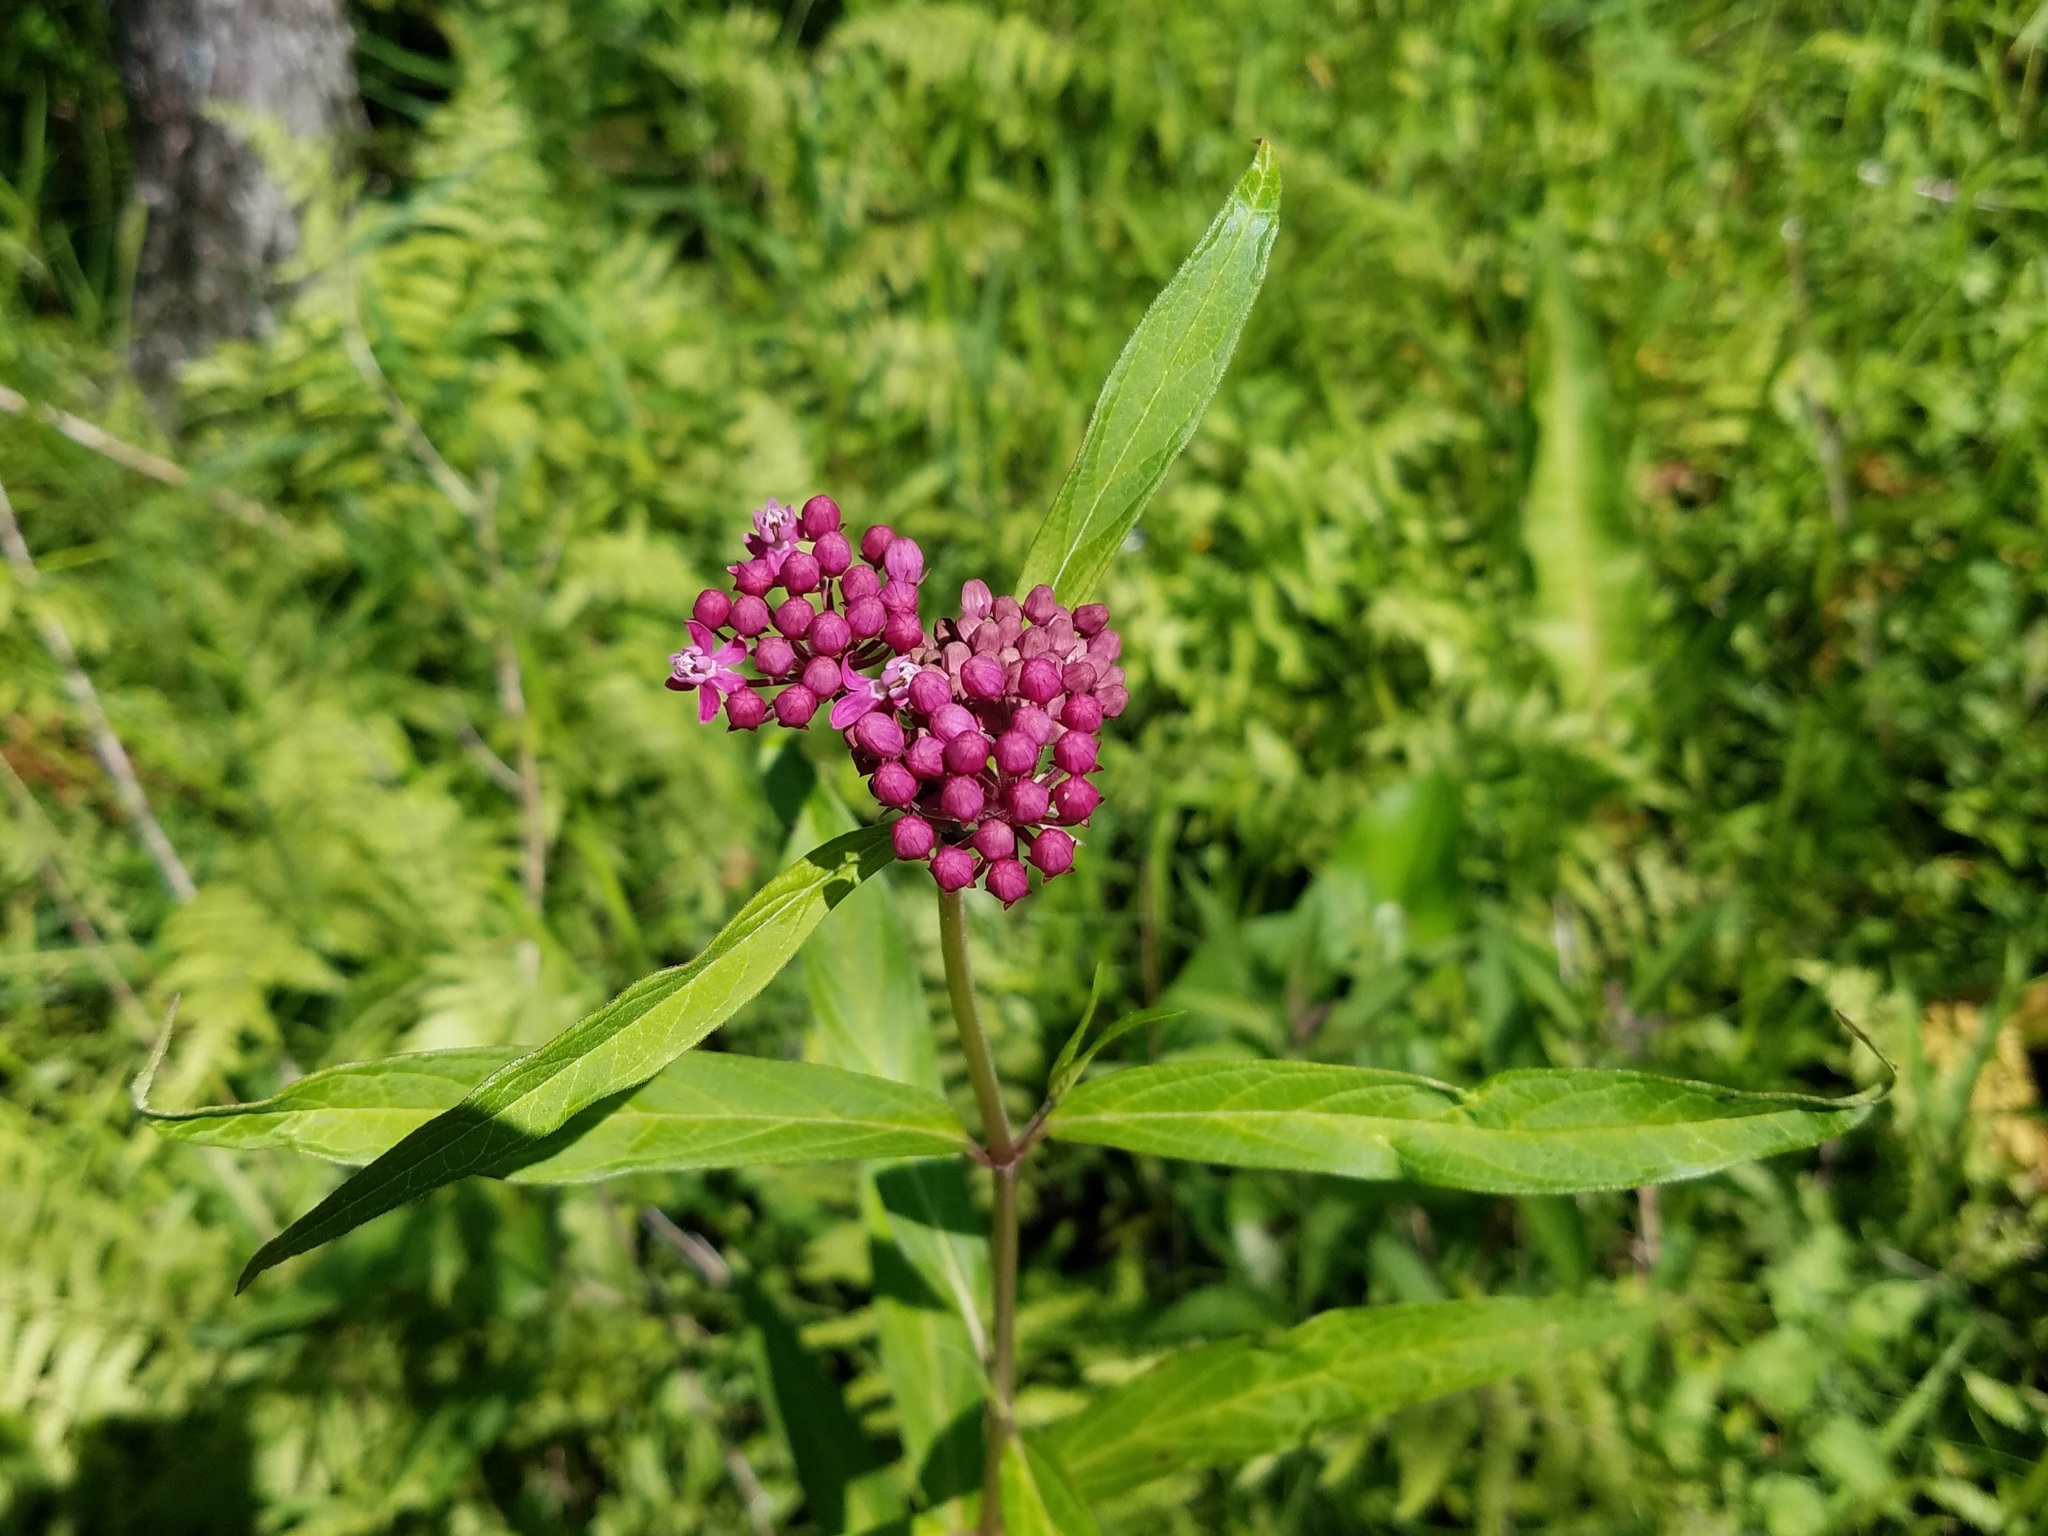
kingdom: Plantae
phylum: Tracheophyta
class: Magnoliopsida
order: Gentianales
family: Apocynaceae
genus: Asclepias
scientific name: Asclepias incarnata
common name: Swamp milkweed
